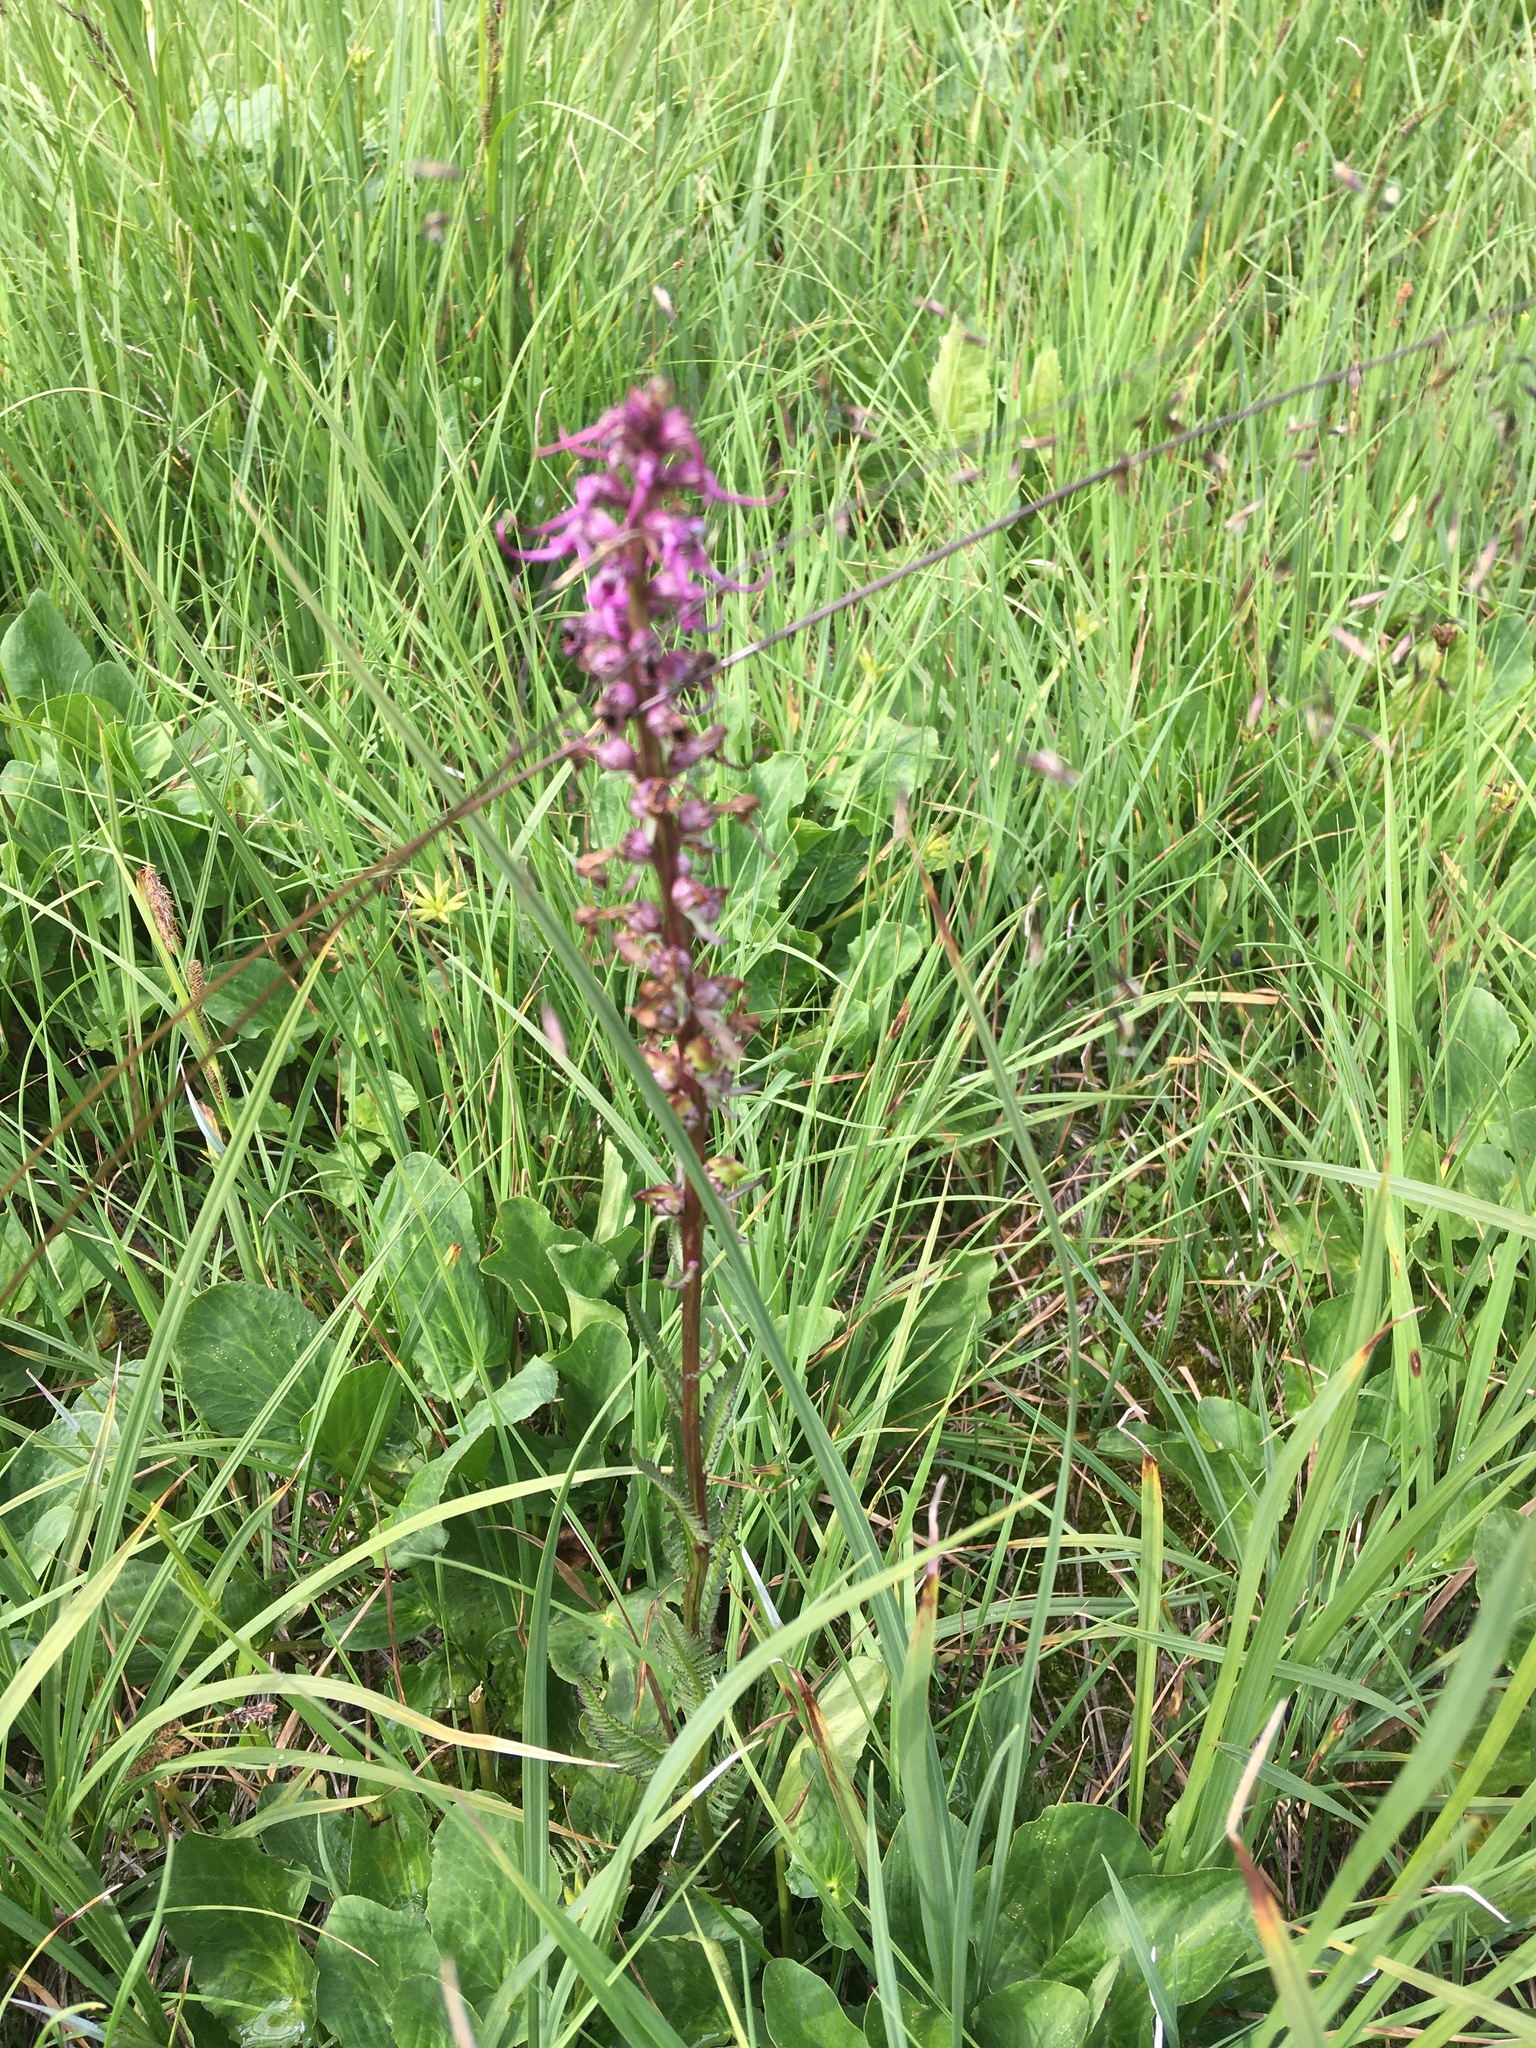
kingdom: Plantae
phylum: Tracheophyta
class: Magnoliopsida
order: Lamiales
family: Orobanchaceae
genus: Pedicularis
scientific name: Pedicularis groenlandica
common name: Elephant's-head
